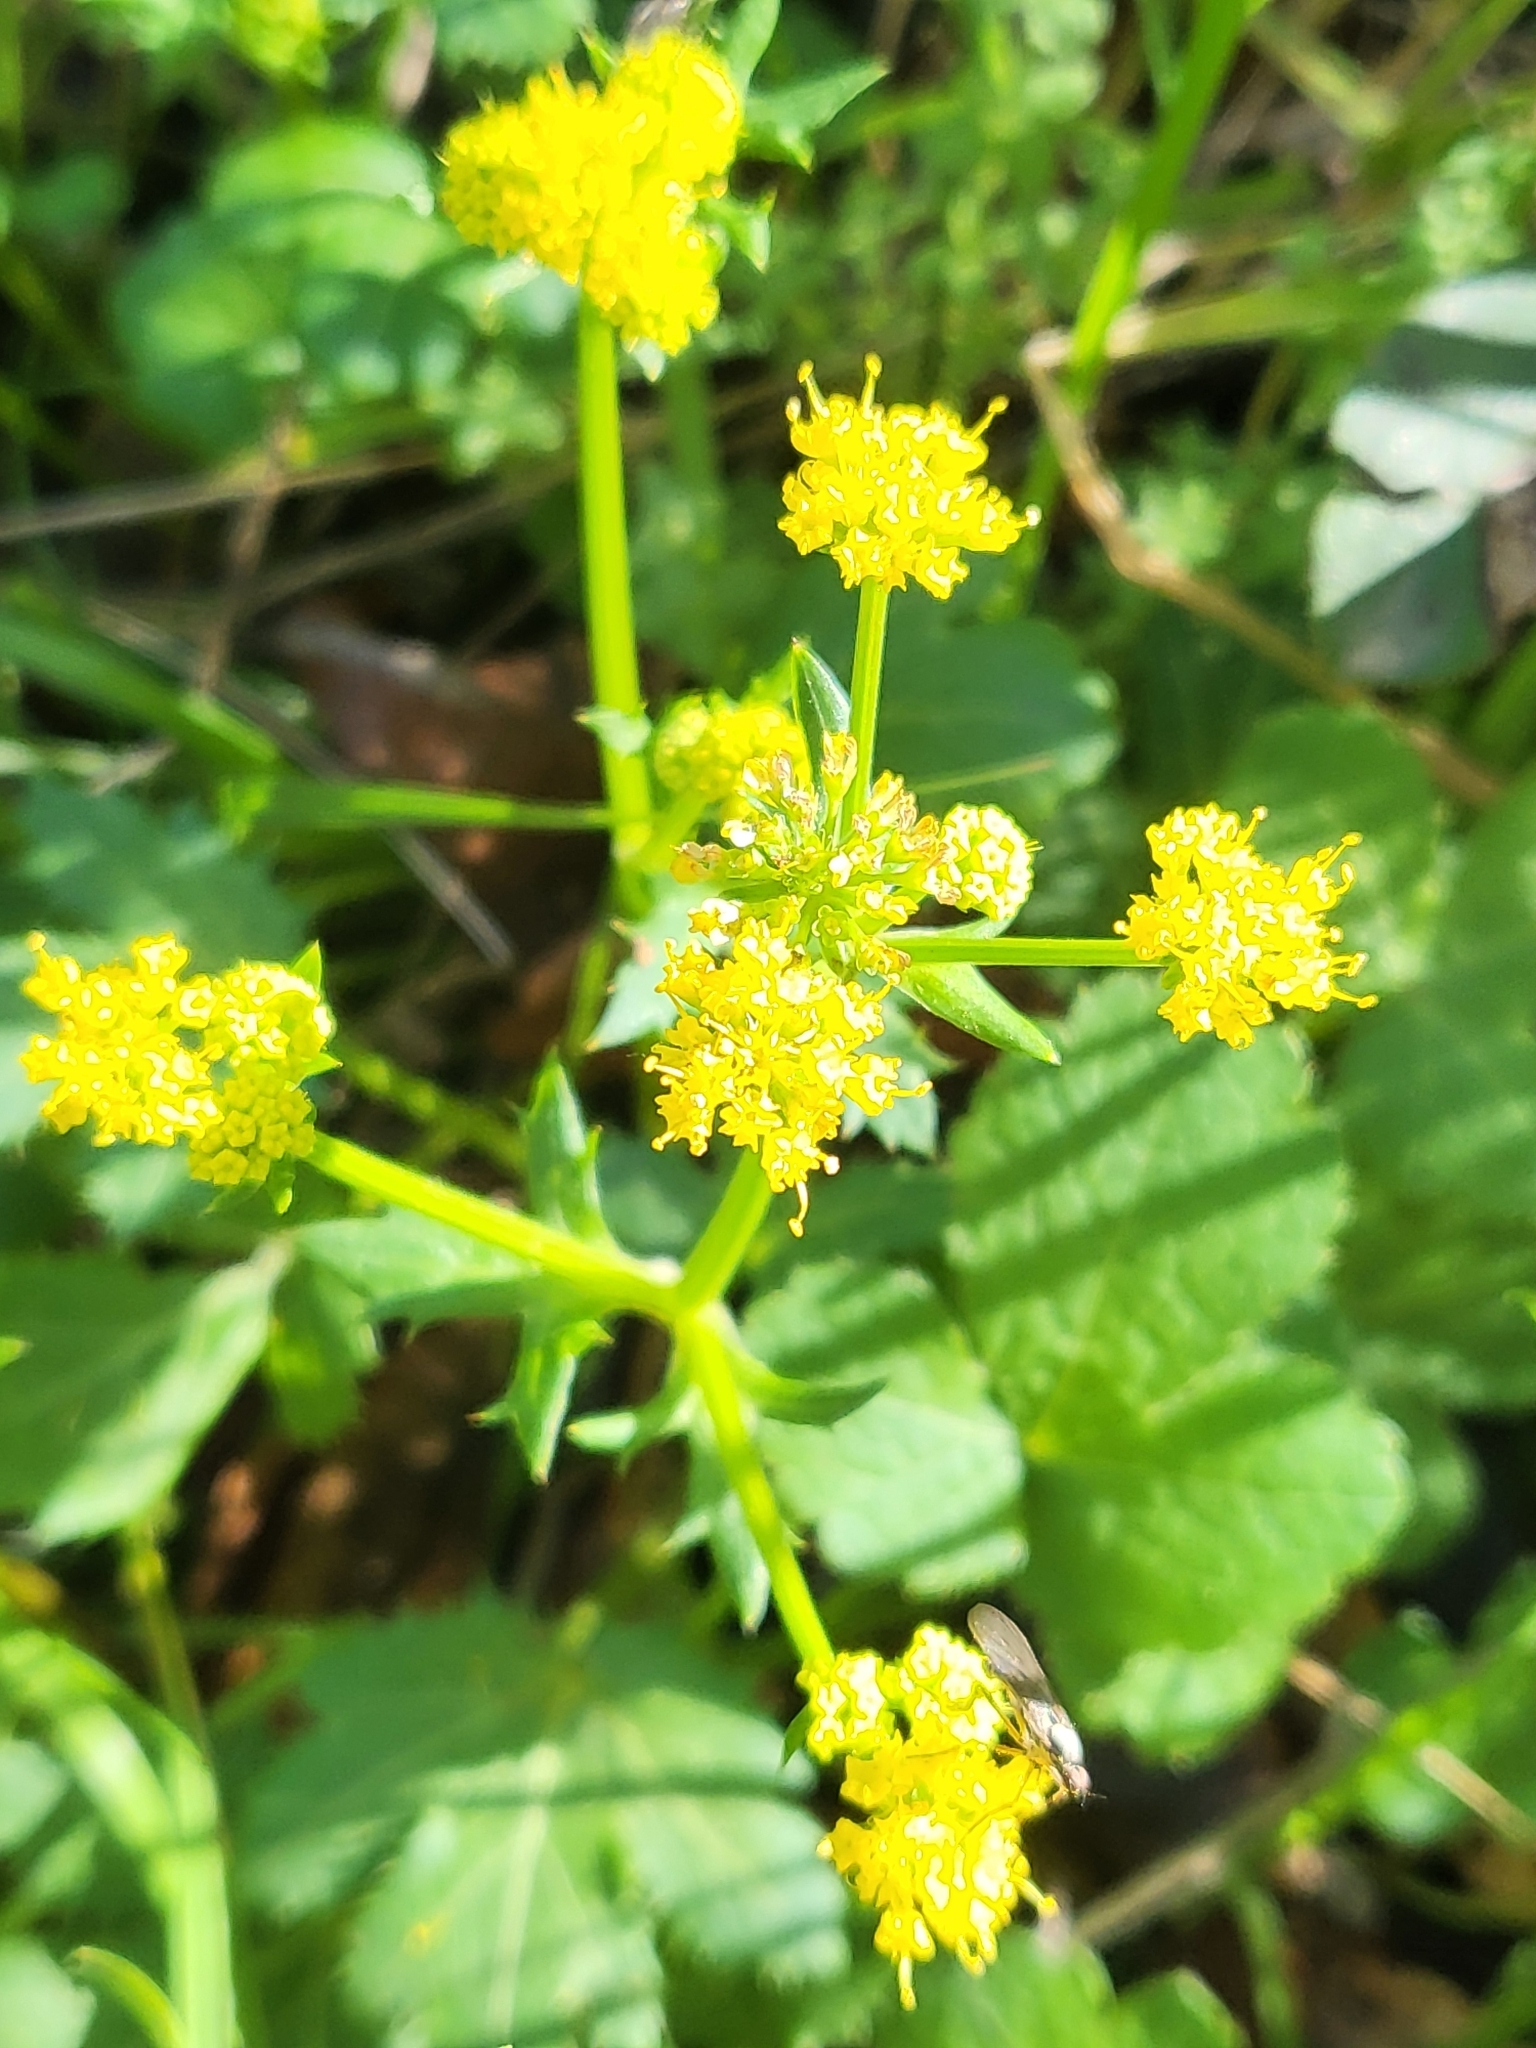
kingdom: Plantae
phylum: Tracheophyta
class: Magnoliopsida
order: Apiales
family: Apiaceae
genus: Sanicula
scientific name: Sanicula crassicaulis
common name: Western snakeroot
